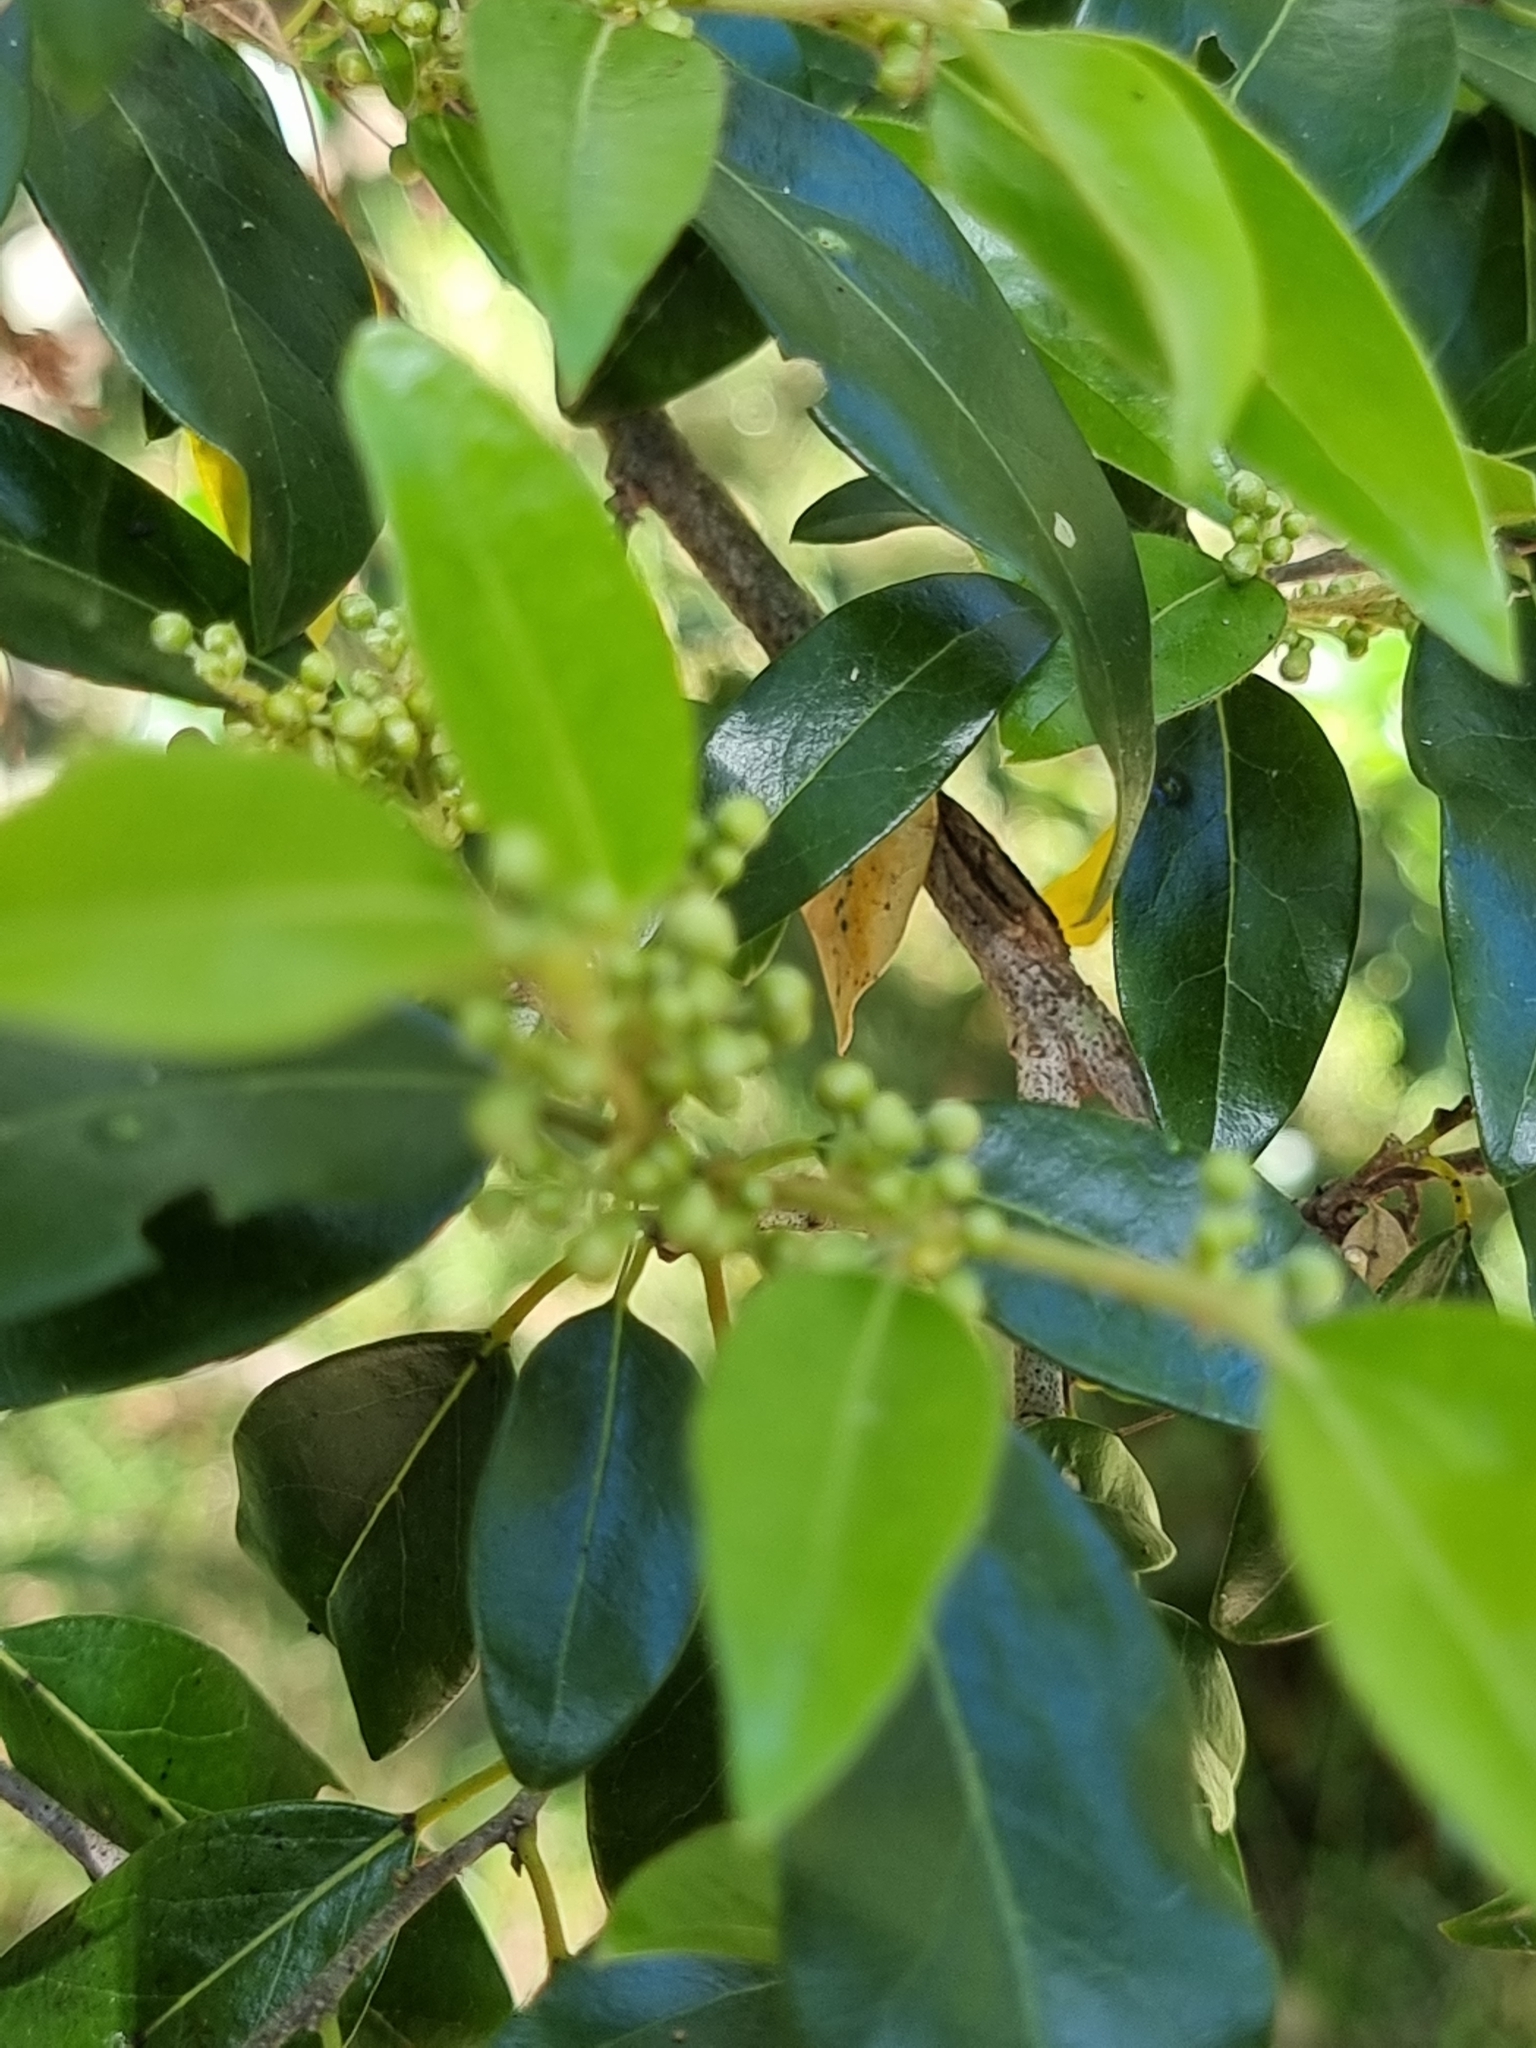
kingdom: Plantae
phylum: Tracheophyta
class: Magnoliopsida
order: Malpighiales
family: Picrodendraceae
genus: Petalostigma
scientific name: Petalostigma triloculare
